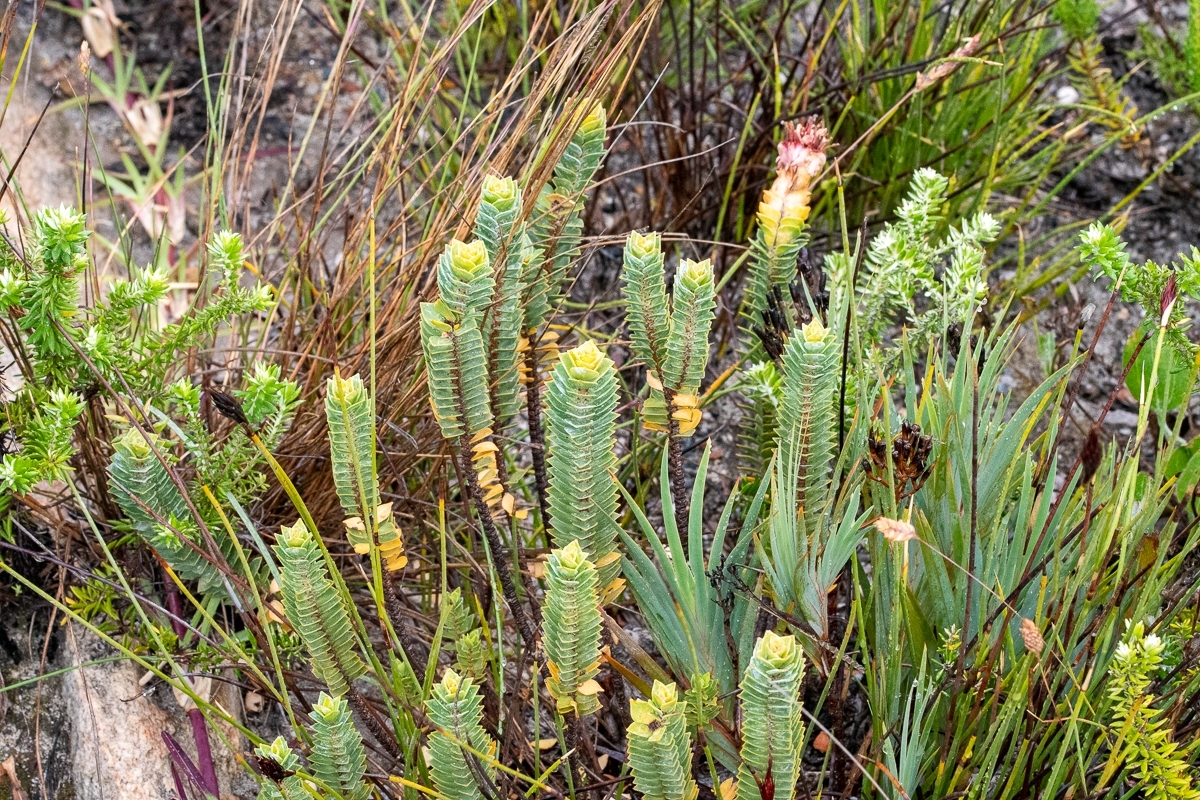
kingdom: Plantae
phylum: Tracheophyta
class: Magnoliopsida
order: Myrtales
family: Penaeaceae
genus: Saltera
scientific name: Saltera sarcocolla
